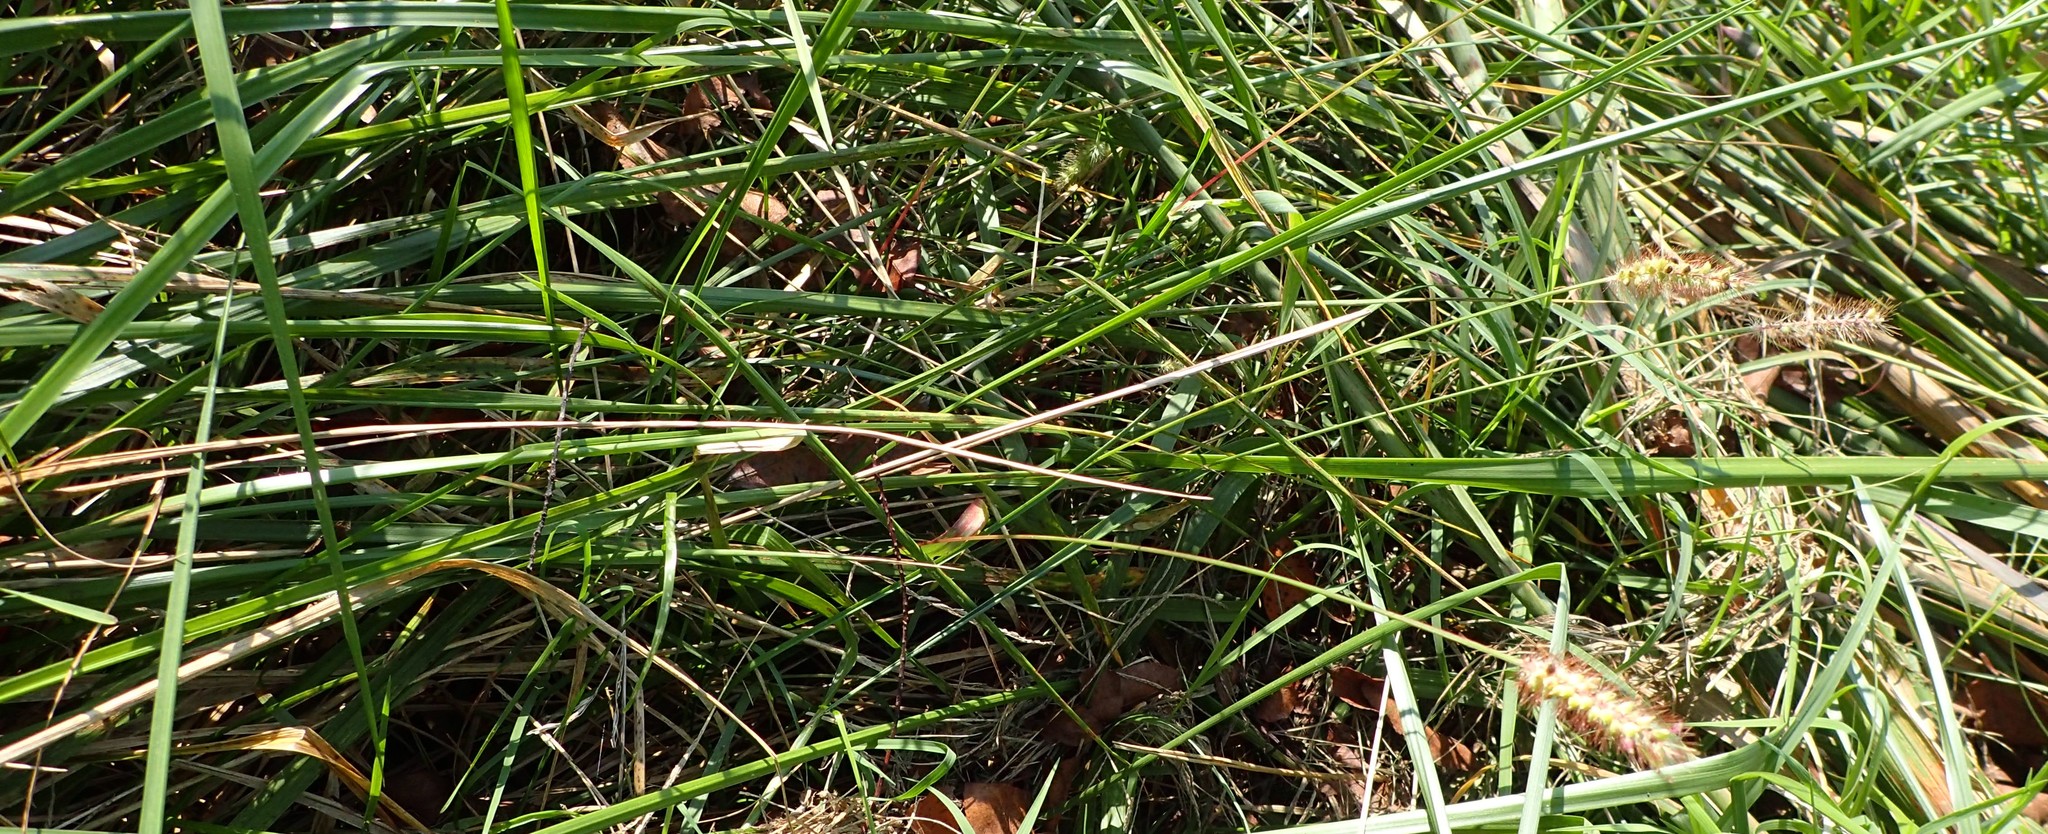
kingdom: Plantae
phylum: Tracheophyta
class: Liliopsida
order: Poales
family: Poaceae
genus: Setaria
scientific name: Setaria pumila
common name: Yellow bristle-grass
